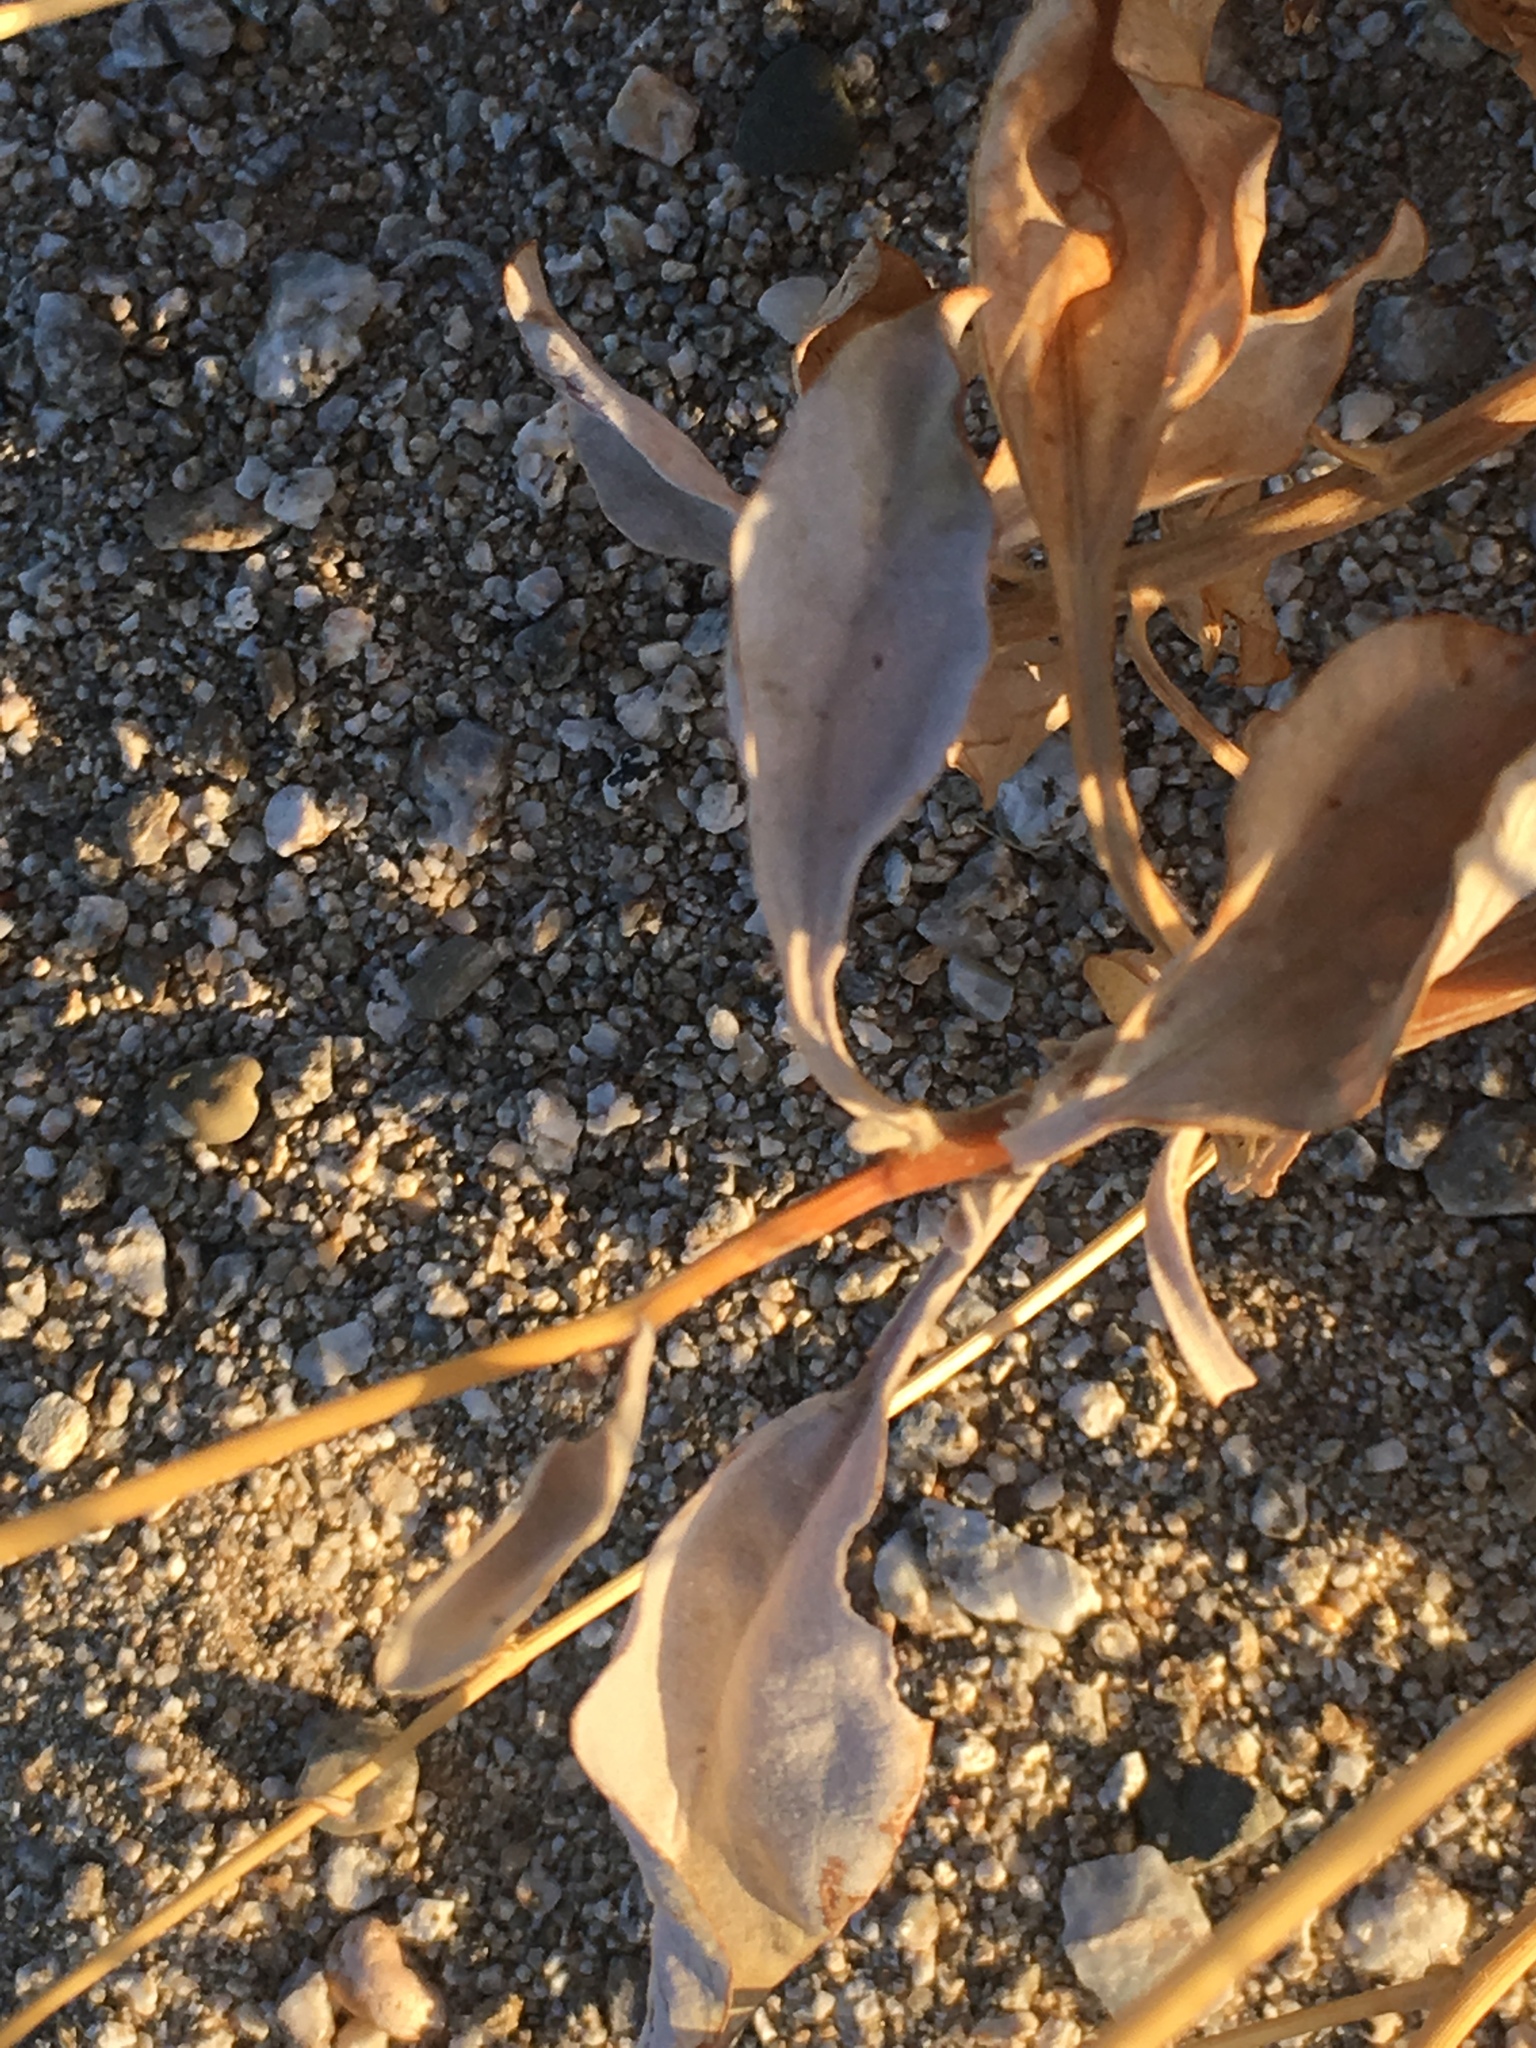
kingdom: Plantae
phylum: Tracheophyta
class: Magnoliopsida
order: Asterales
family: Asteraceae
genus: Encelia
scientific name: Encelia farinosa
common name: Brittlebush
